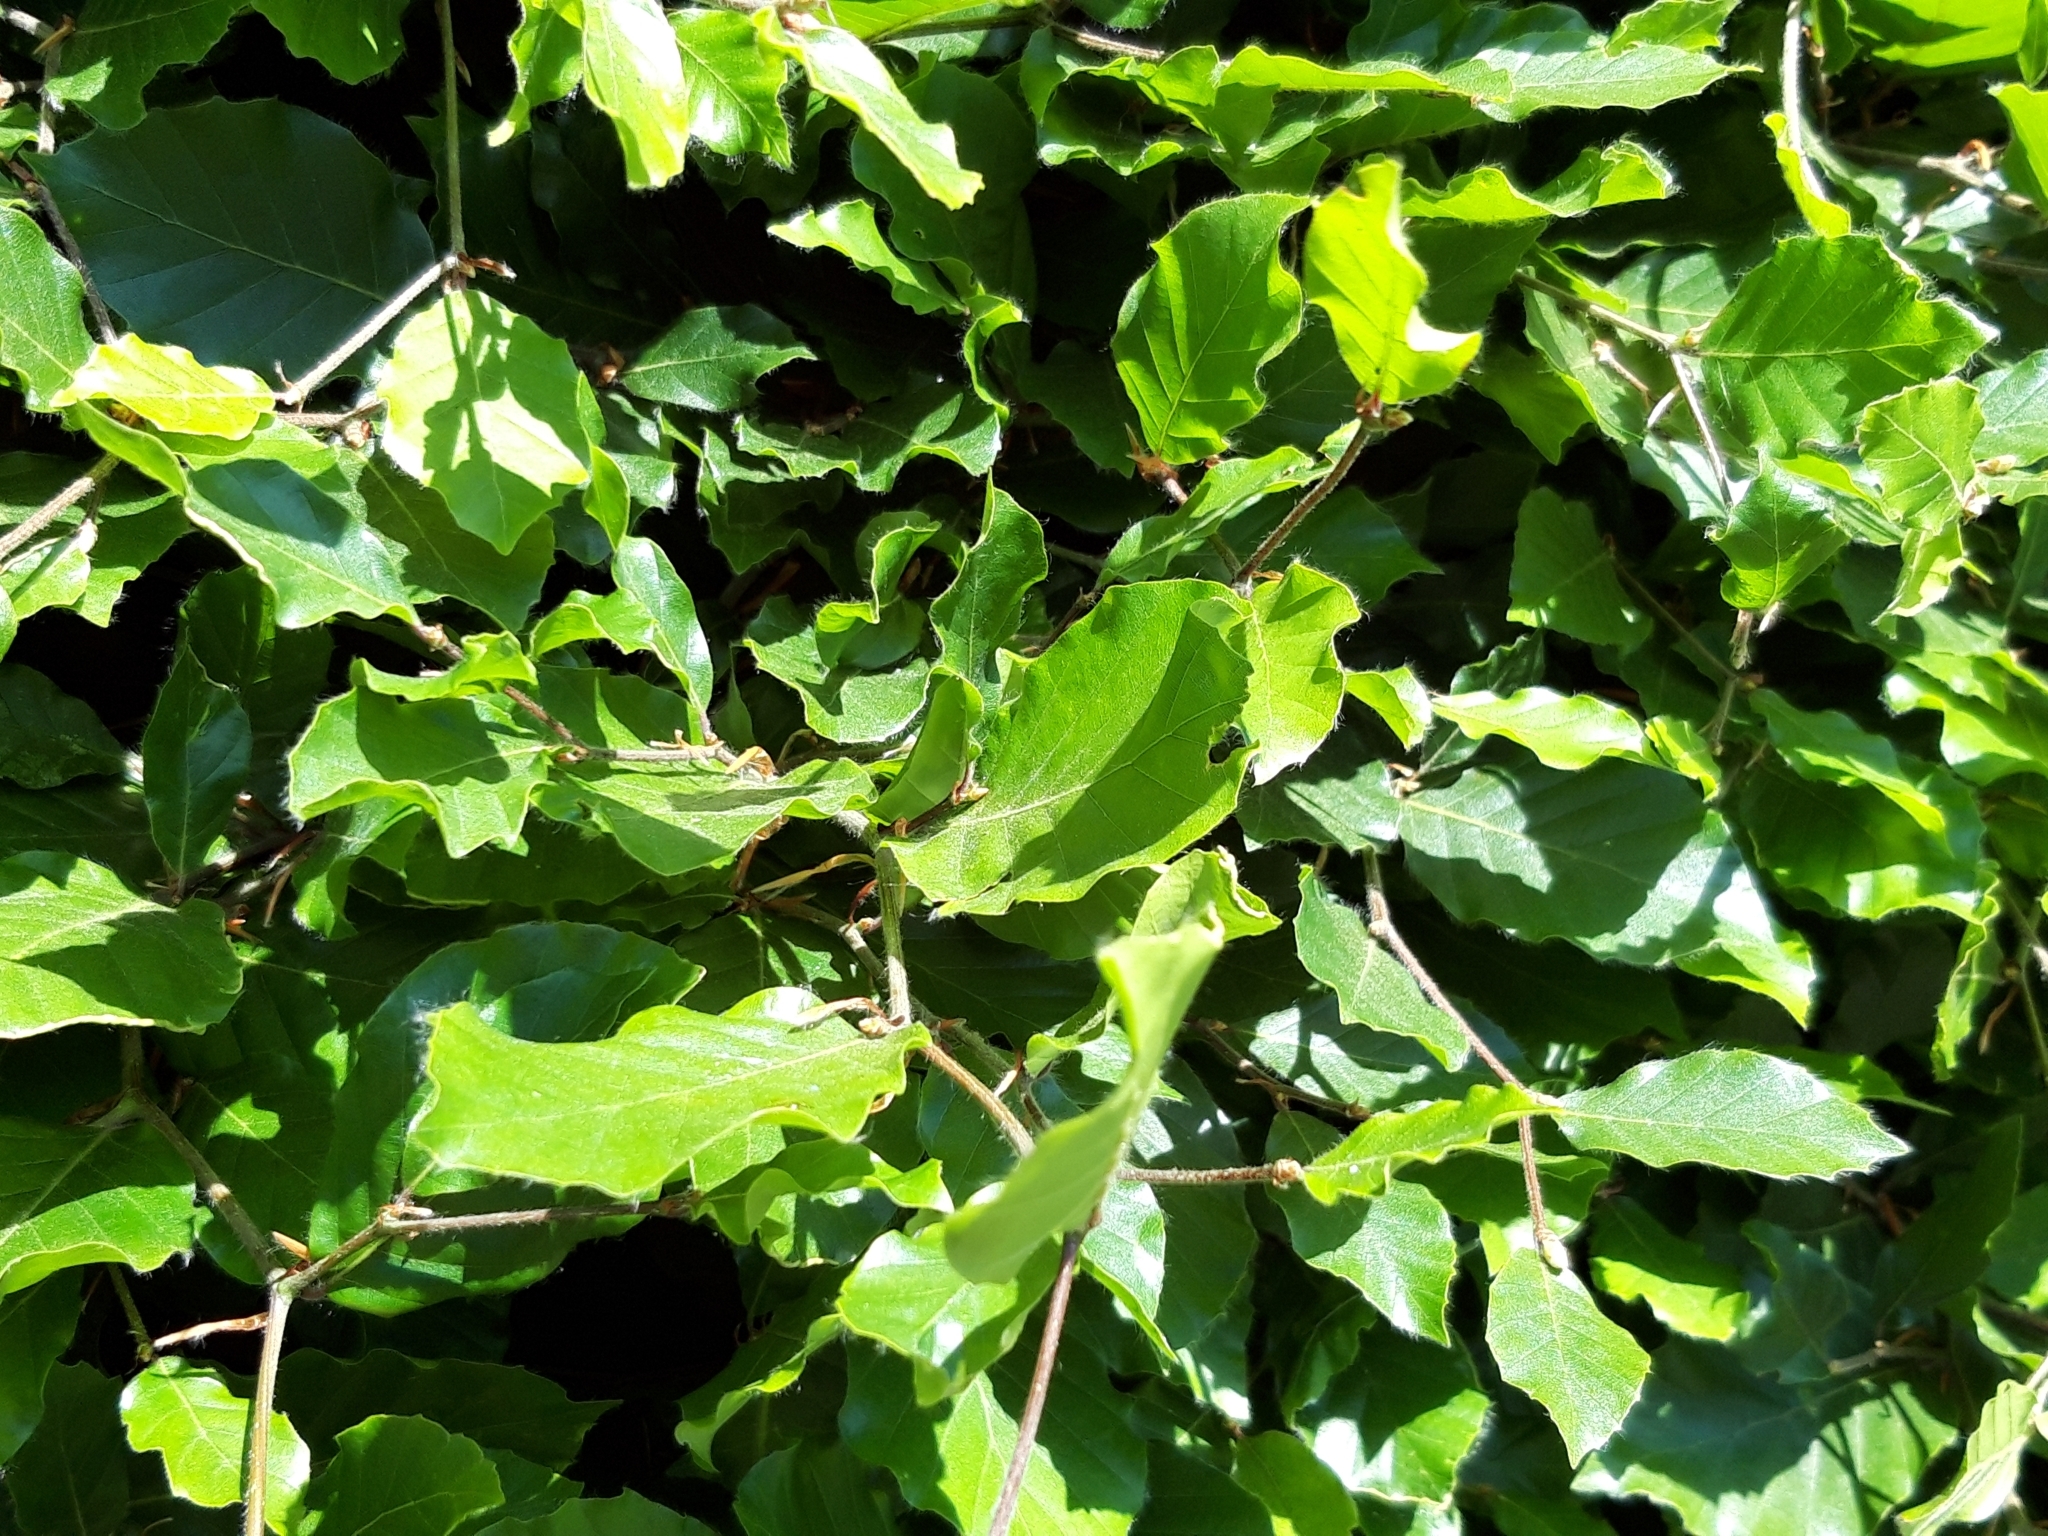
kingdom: Plantae
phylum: Tracheophyta
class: Magnoliopsida
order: Fagales
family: Fagaceae
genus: Fagus
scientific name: Fagus sylvatica
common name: Beech
